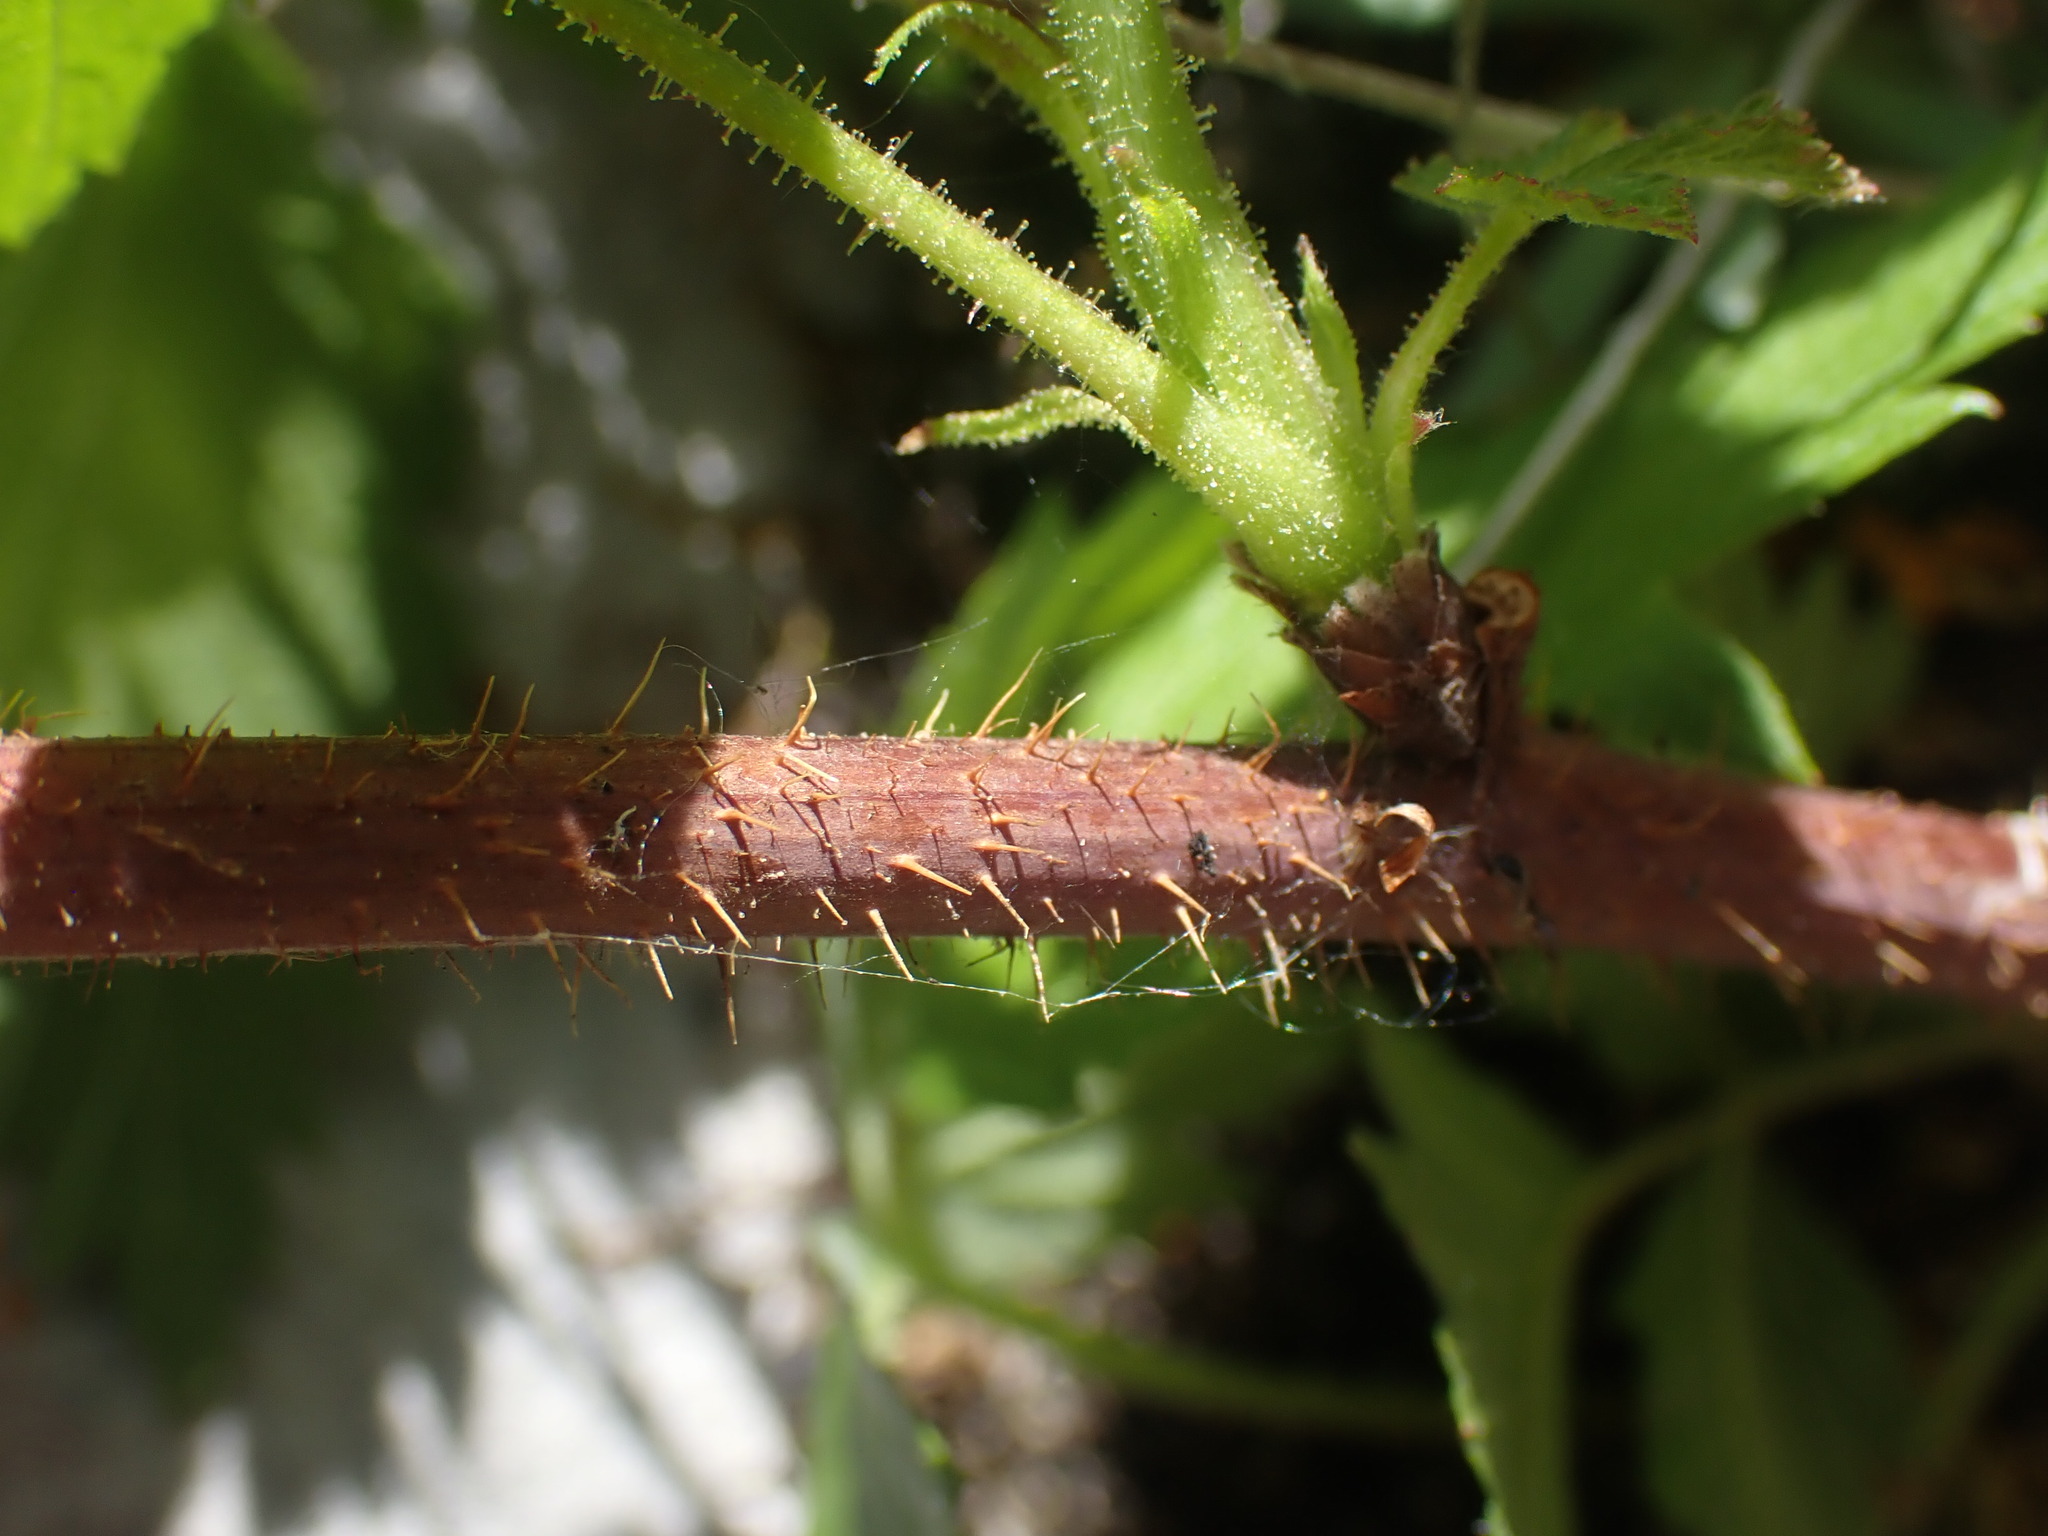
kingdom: Plantae
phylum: Tracheophyta
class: Magnoliopsida
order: Rosales
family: Rosaceae
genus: Rubus
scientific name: Rubus idaeus
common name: Raspberry
